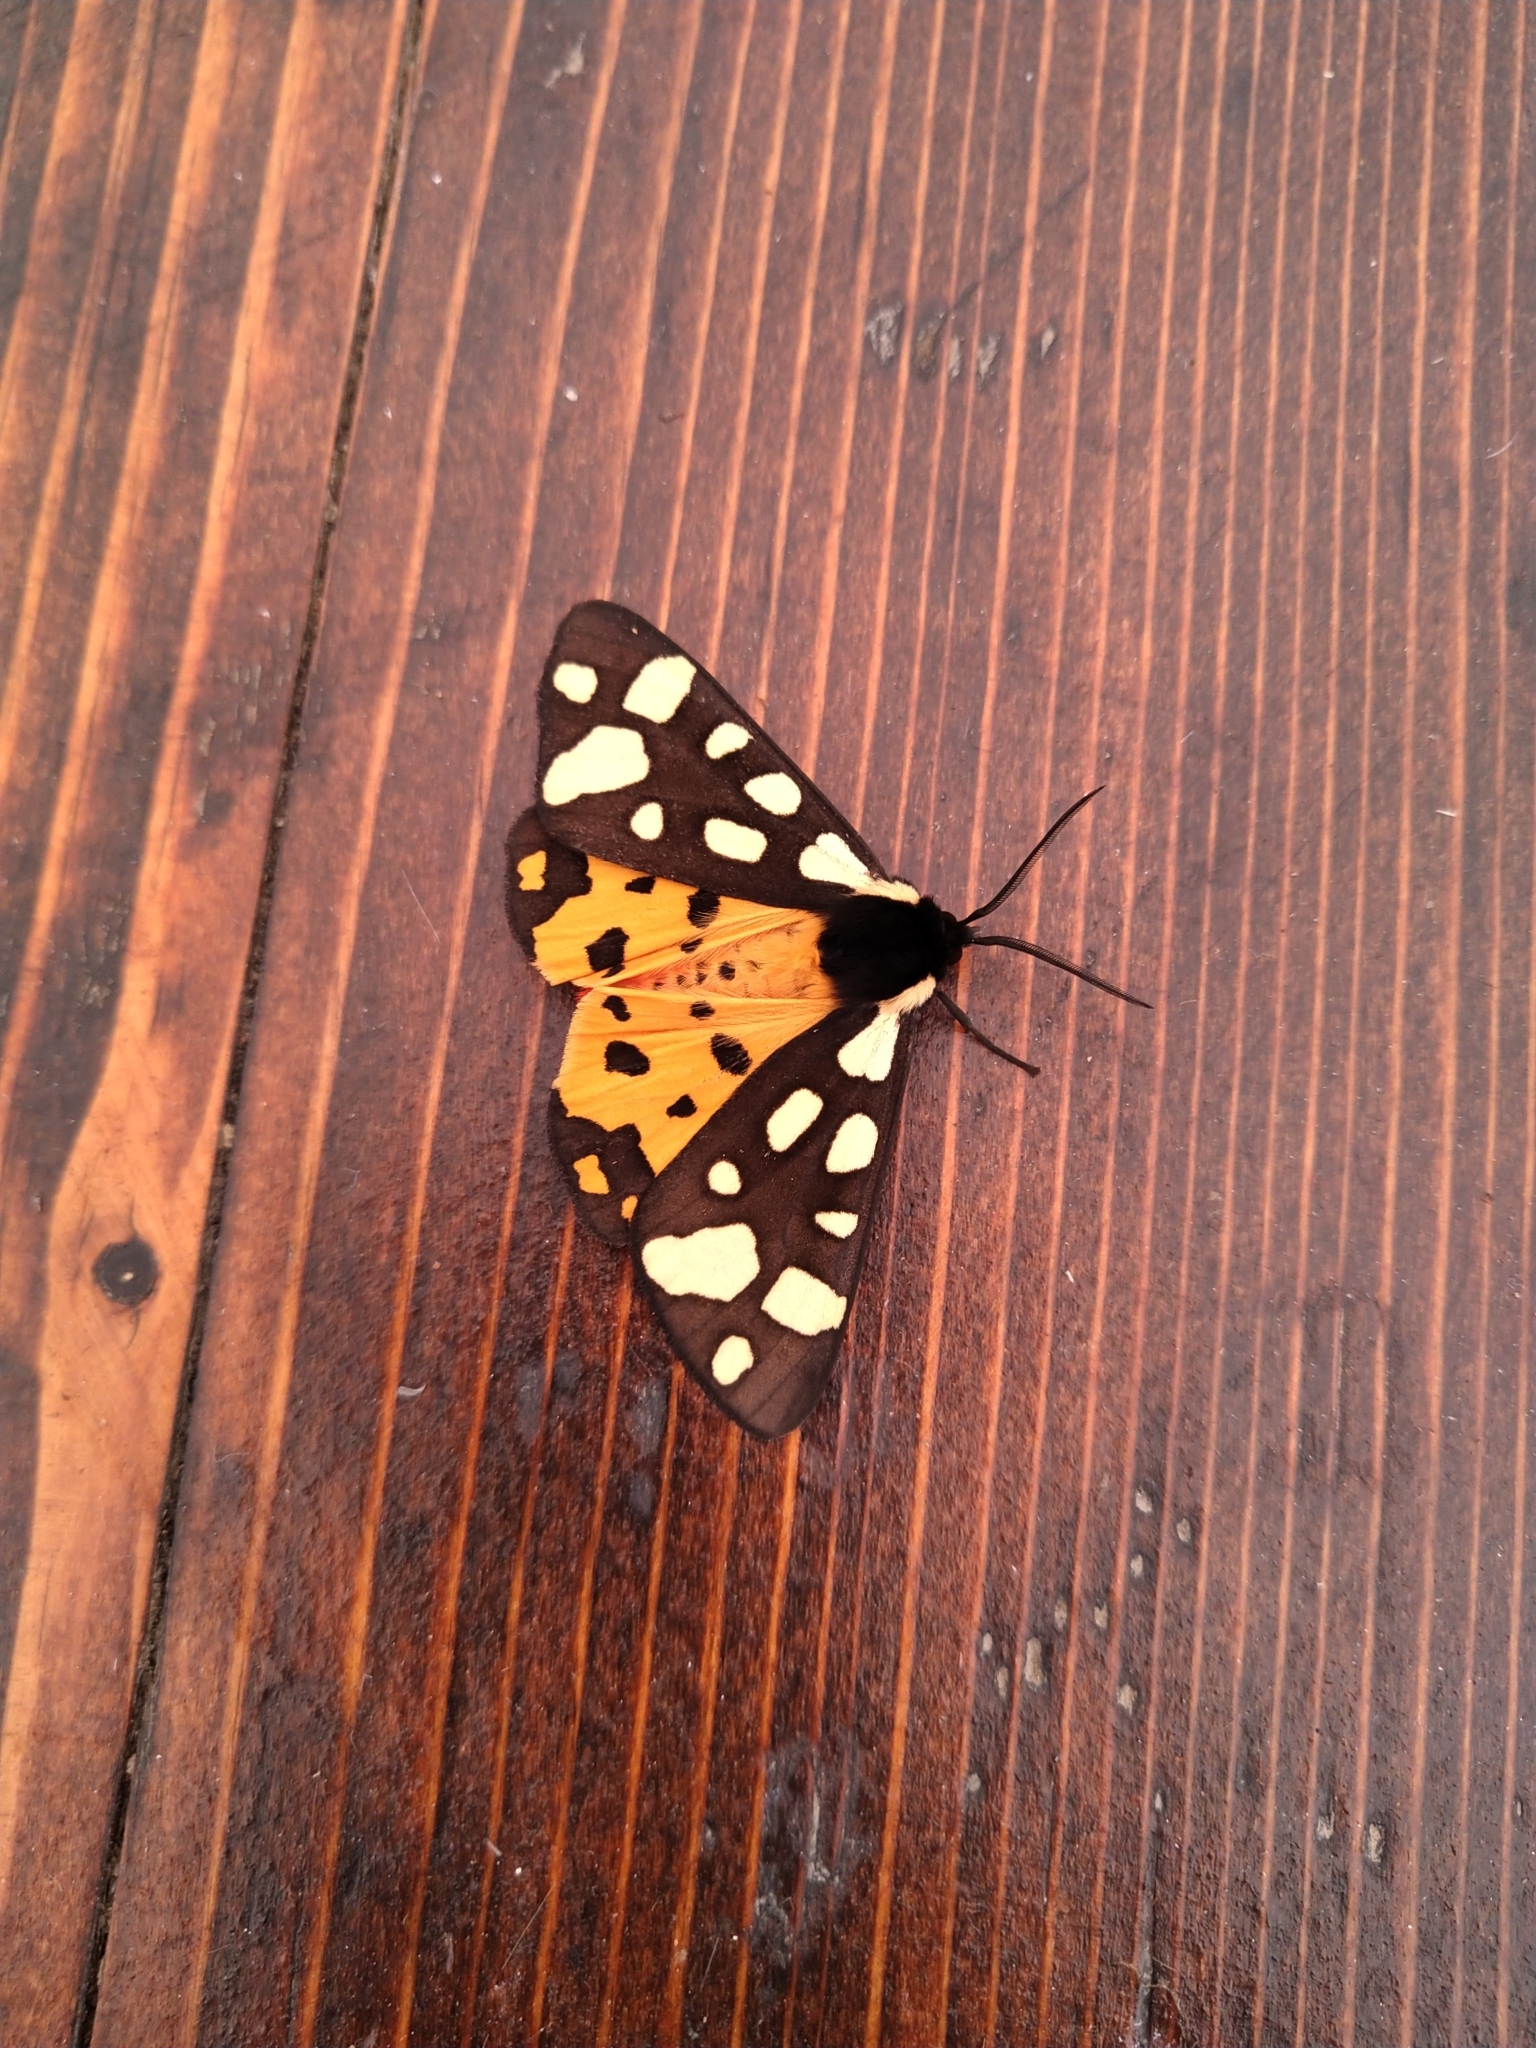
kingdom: Animalia
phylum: Arthropoda
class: Insecta
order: Lepidoptera
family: Erebidae
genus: Epicallia
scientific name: Epicallia villica
